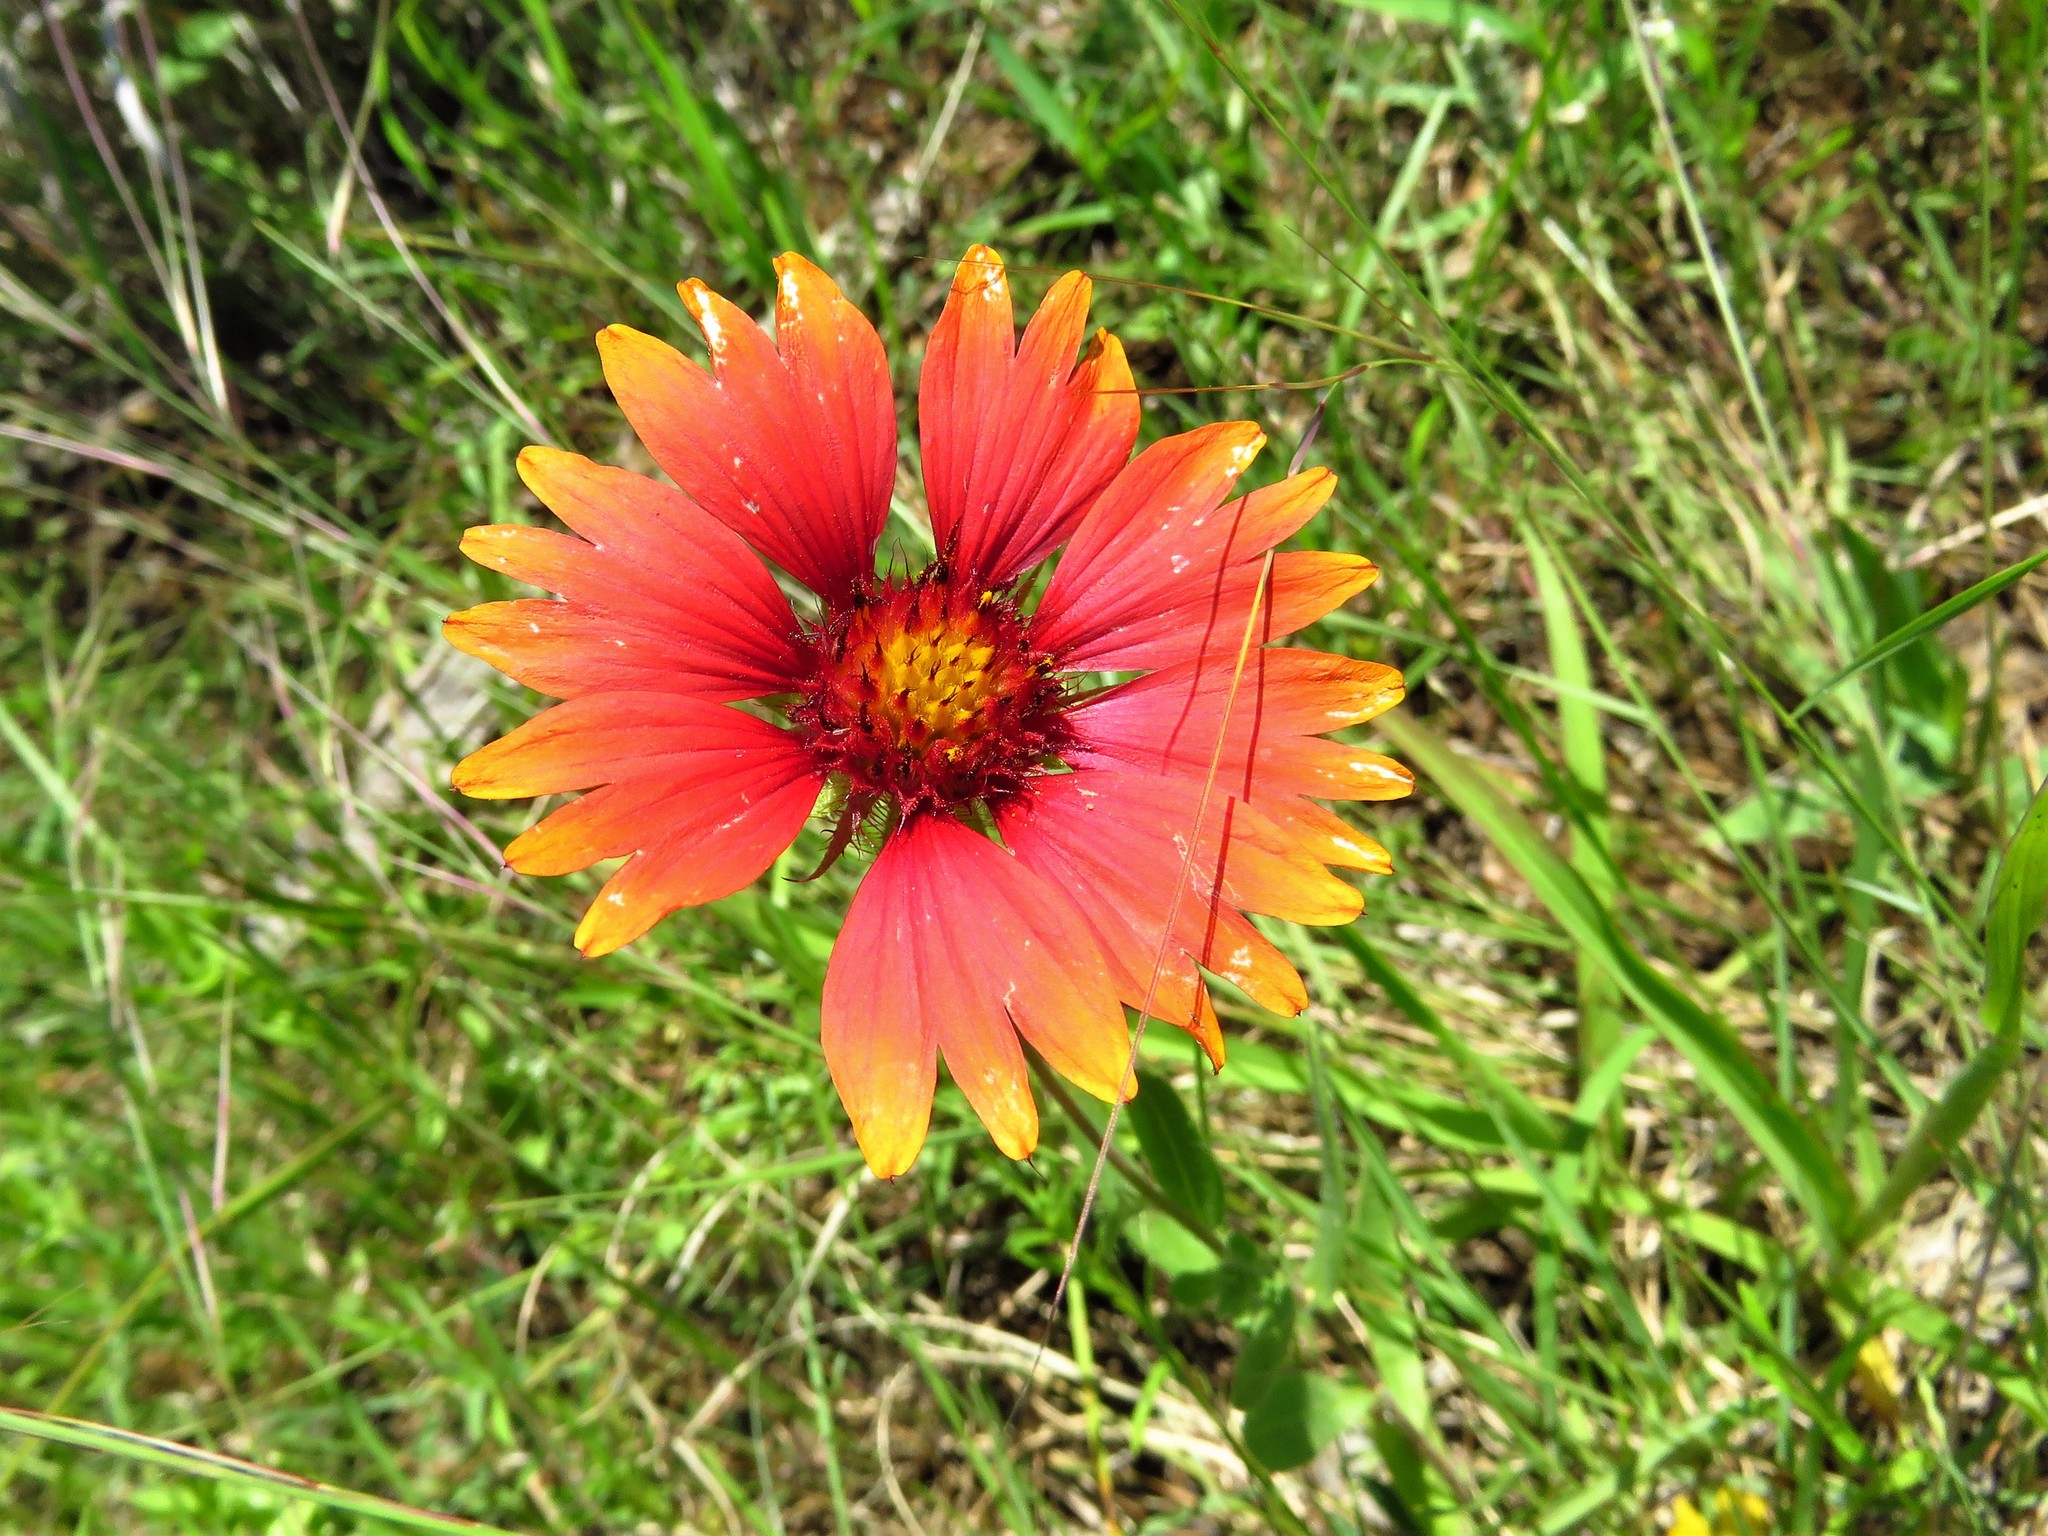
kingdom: Plantae
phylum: Tracheophyta
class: Magnoliopsida
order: Asterales
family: Asteraceae
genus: Gaillardia
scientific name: Gaillardia pulchella
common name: Firewheel
